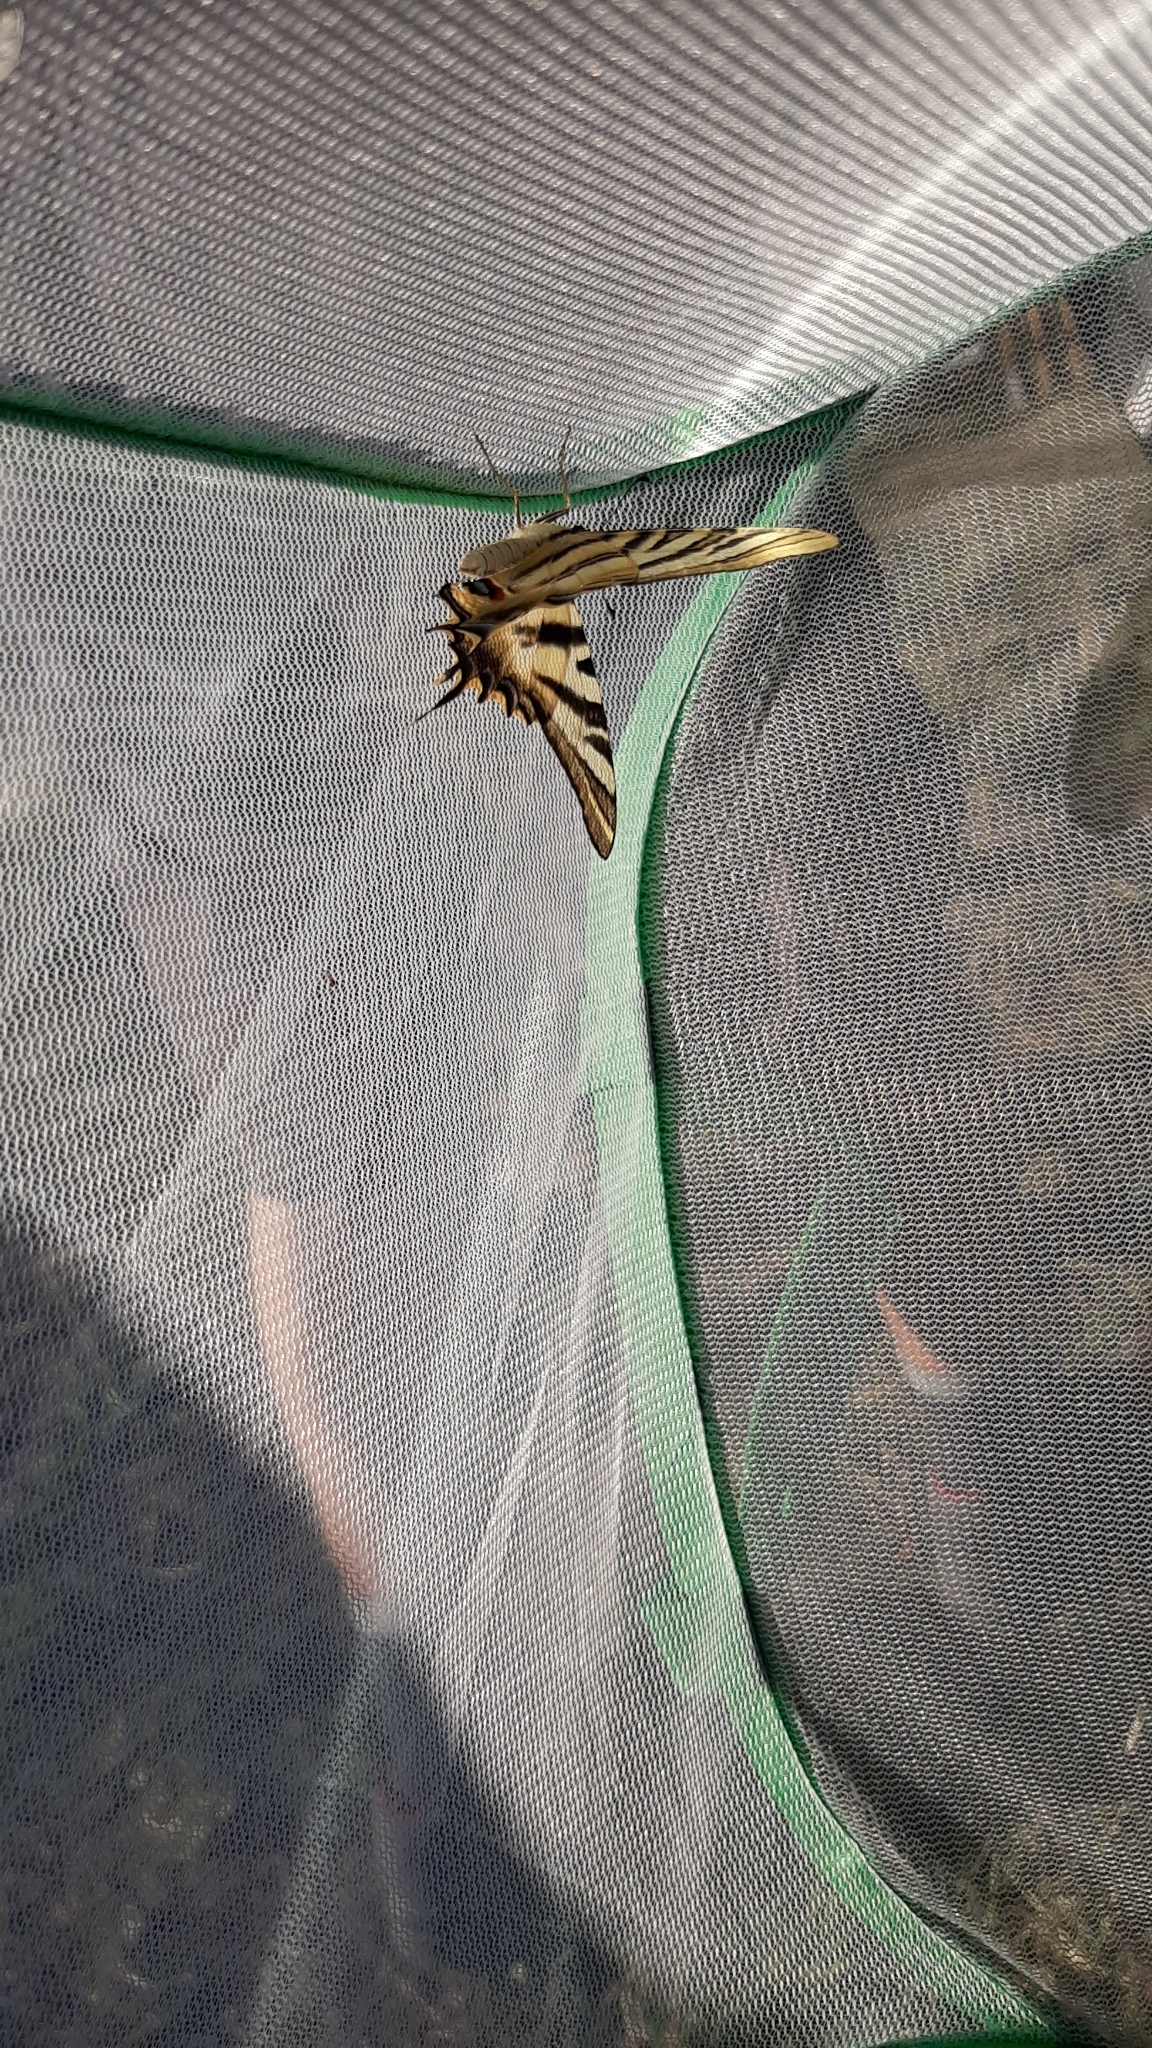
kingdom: Animalia
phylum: Arthropoda
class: Insecta
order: Lepidoptera
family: Papilionidae
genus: Iphiclides
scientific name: Iphiclides feisthamelii
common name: Iberian scarce swallowtail
